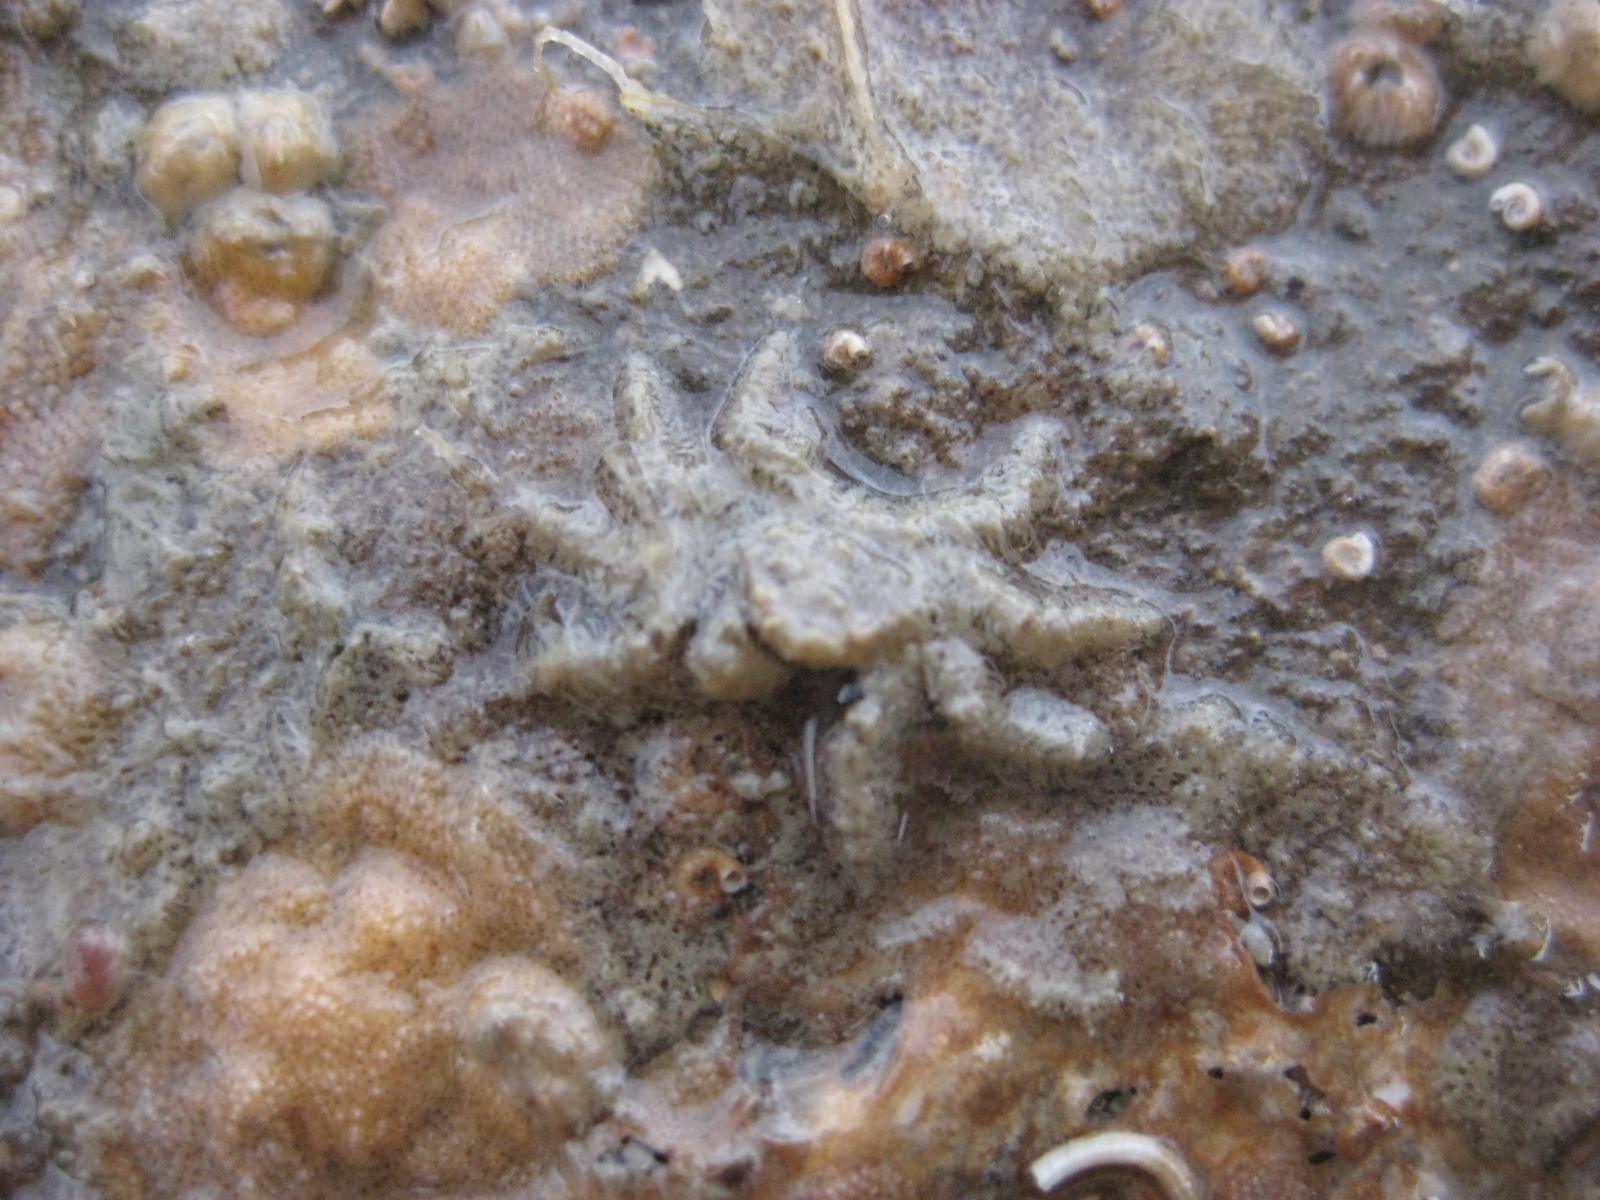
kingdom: Animalia
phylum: Arthropoda
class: Malacostraca
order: Decapoda
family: Hymenosomatidae
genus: Neohymenicus
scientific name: Neohymenicus pubescens
